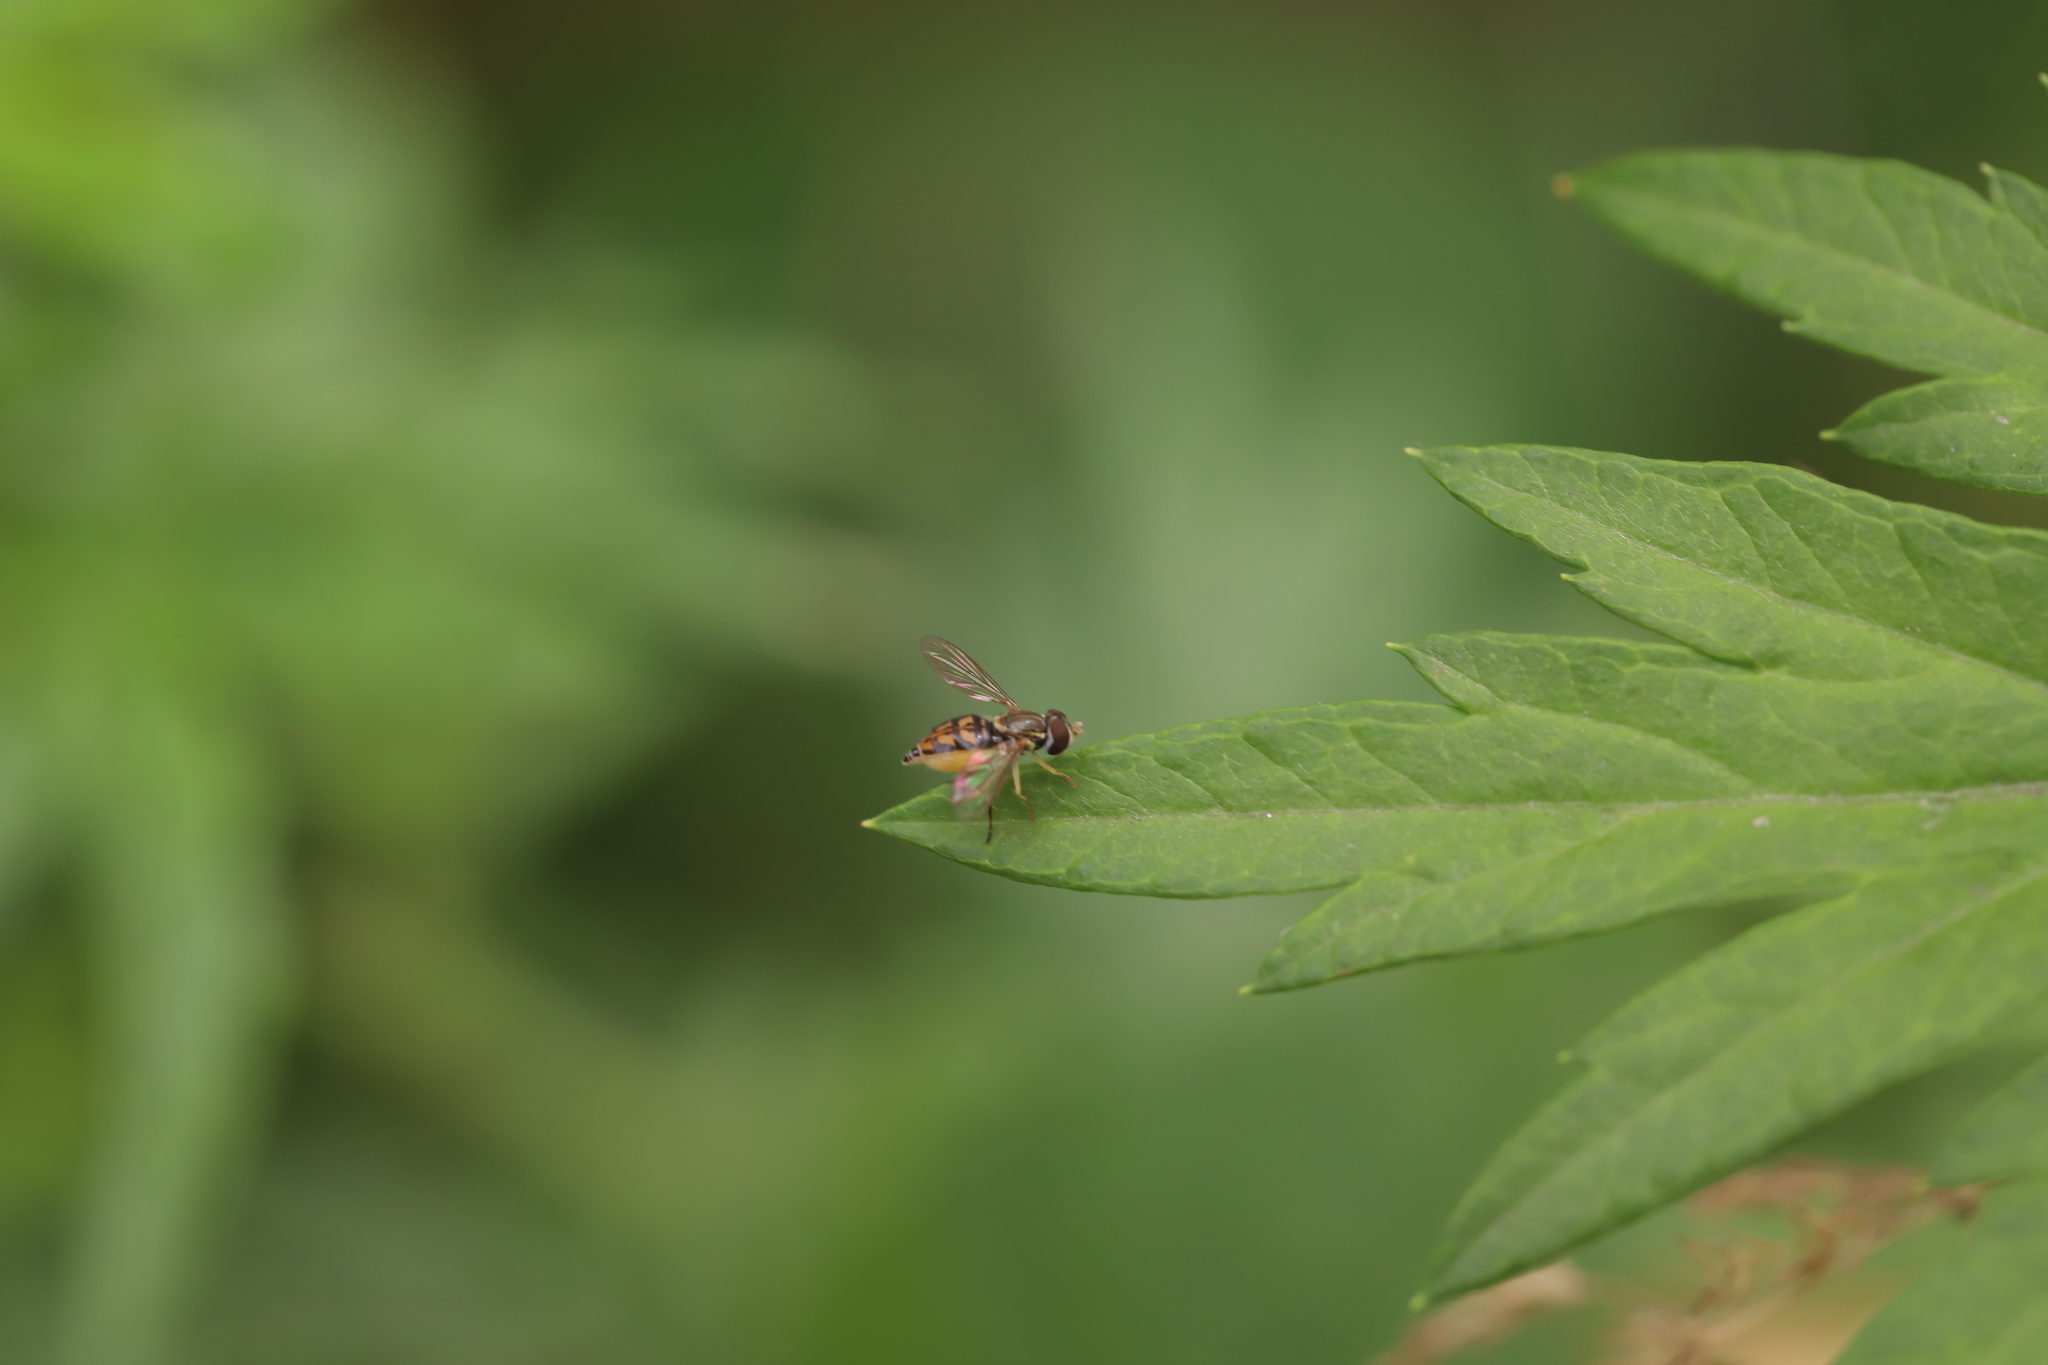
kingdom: Animalia
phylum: Arthropoda
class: Insecta
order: Diptera
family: Syrphidae
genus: Toxomerus
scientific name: Toxomerus marginatus
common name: Syrphid fly
